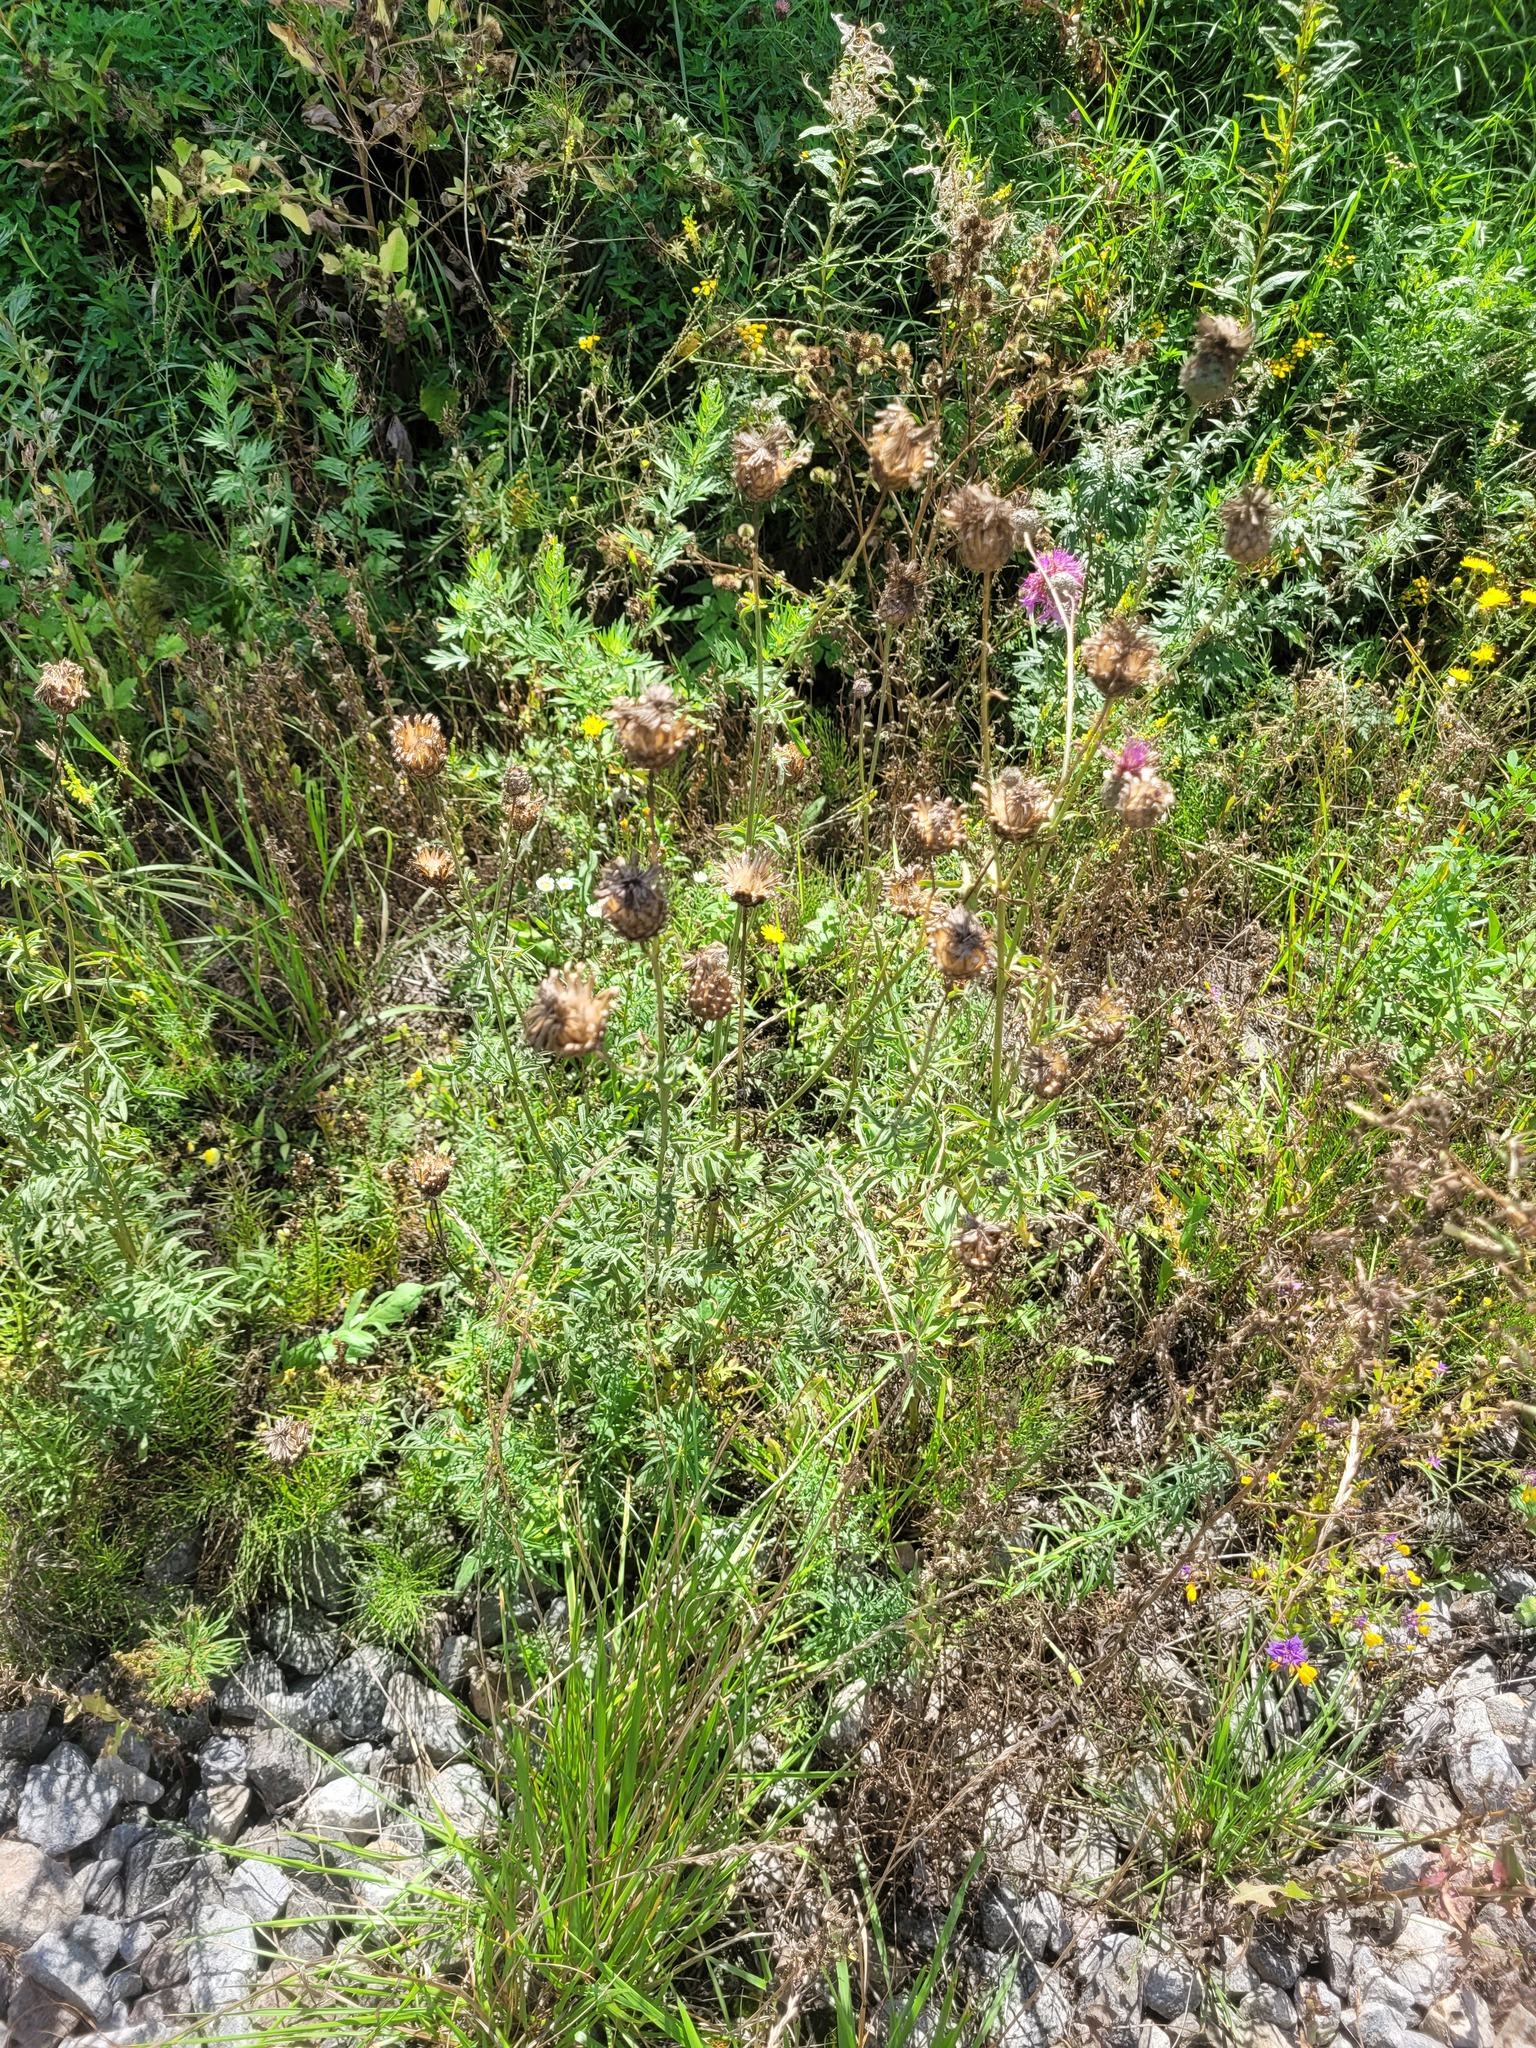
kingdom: Plantae
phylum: Tracheophyta
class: Magnoliopsida
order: Asterales
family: Asteraceae
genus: Centaurea
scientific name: Centaurea scabiosa
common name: Greater knapweed
